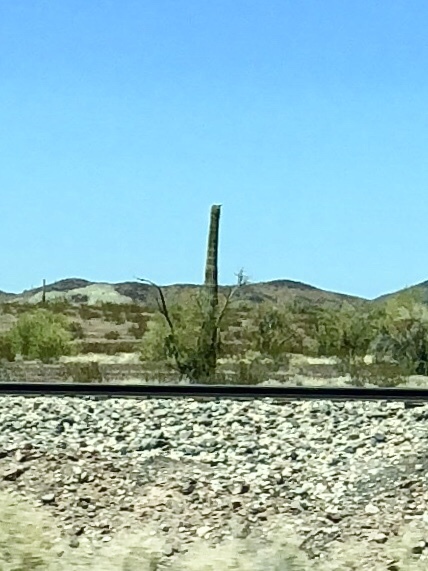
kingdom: Plantae
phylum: Tracheophyta
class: Magnoliopsida
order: Caryophyllales
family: Cactaceae
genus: Carnegiea
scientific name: Carnegiea gigantea
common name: Saguaro
